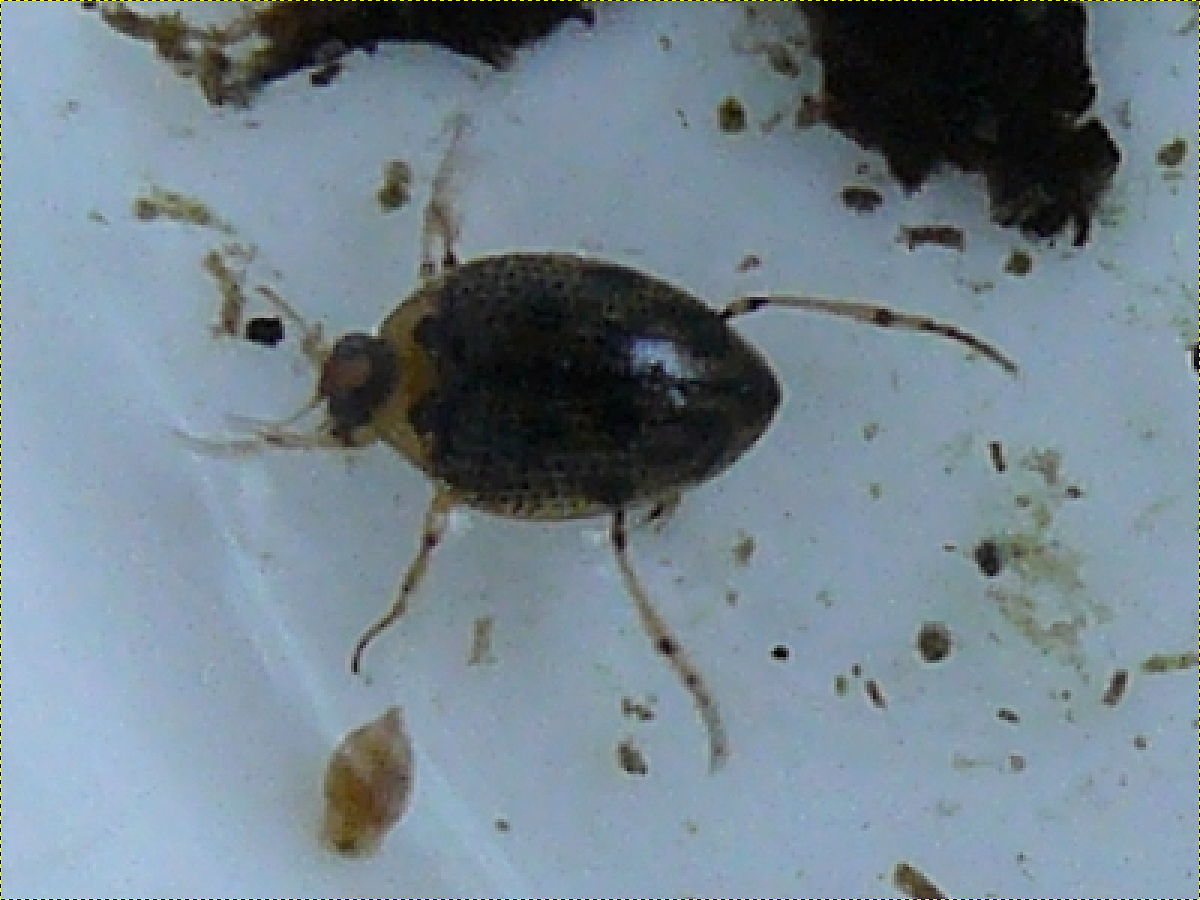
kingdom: Animalia
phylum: Arthropoda
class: Insecta
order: Coleoptera
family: Haliplidae
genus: Peltodytes
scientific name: Peltodytes edentulus
